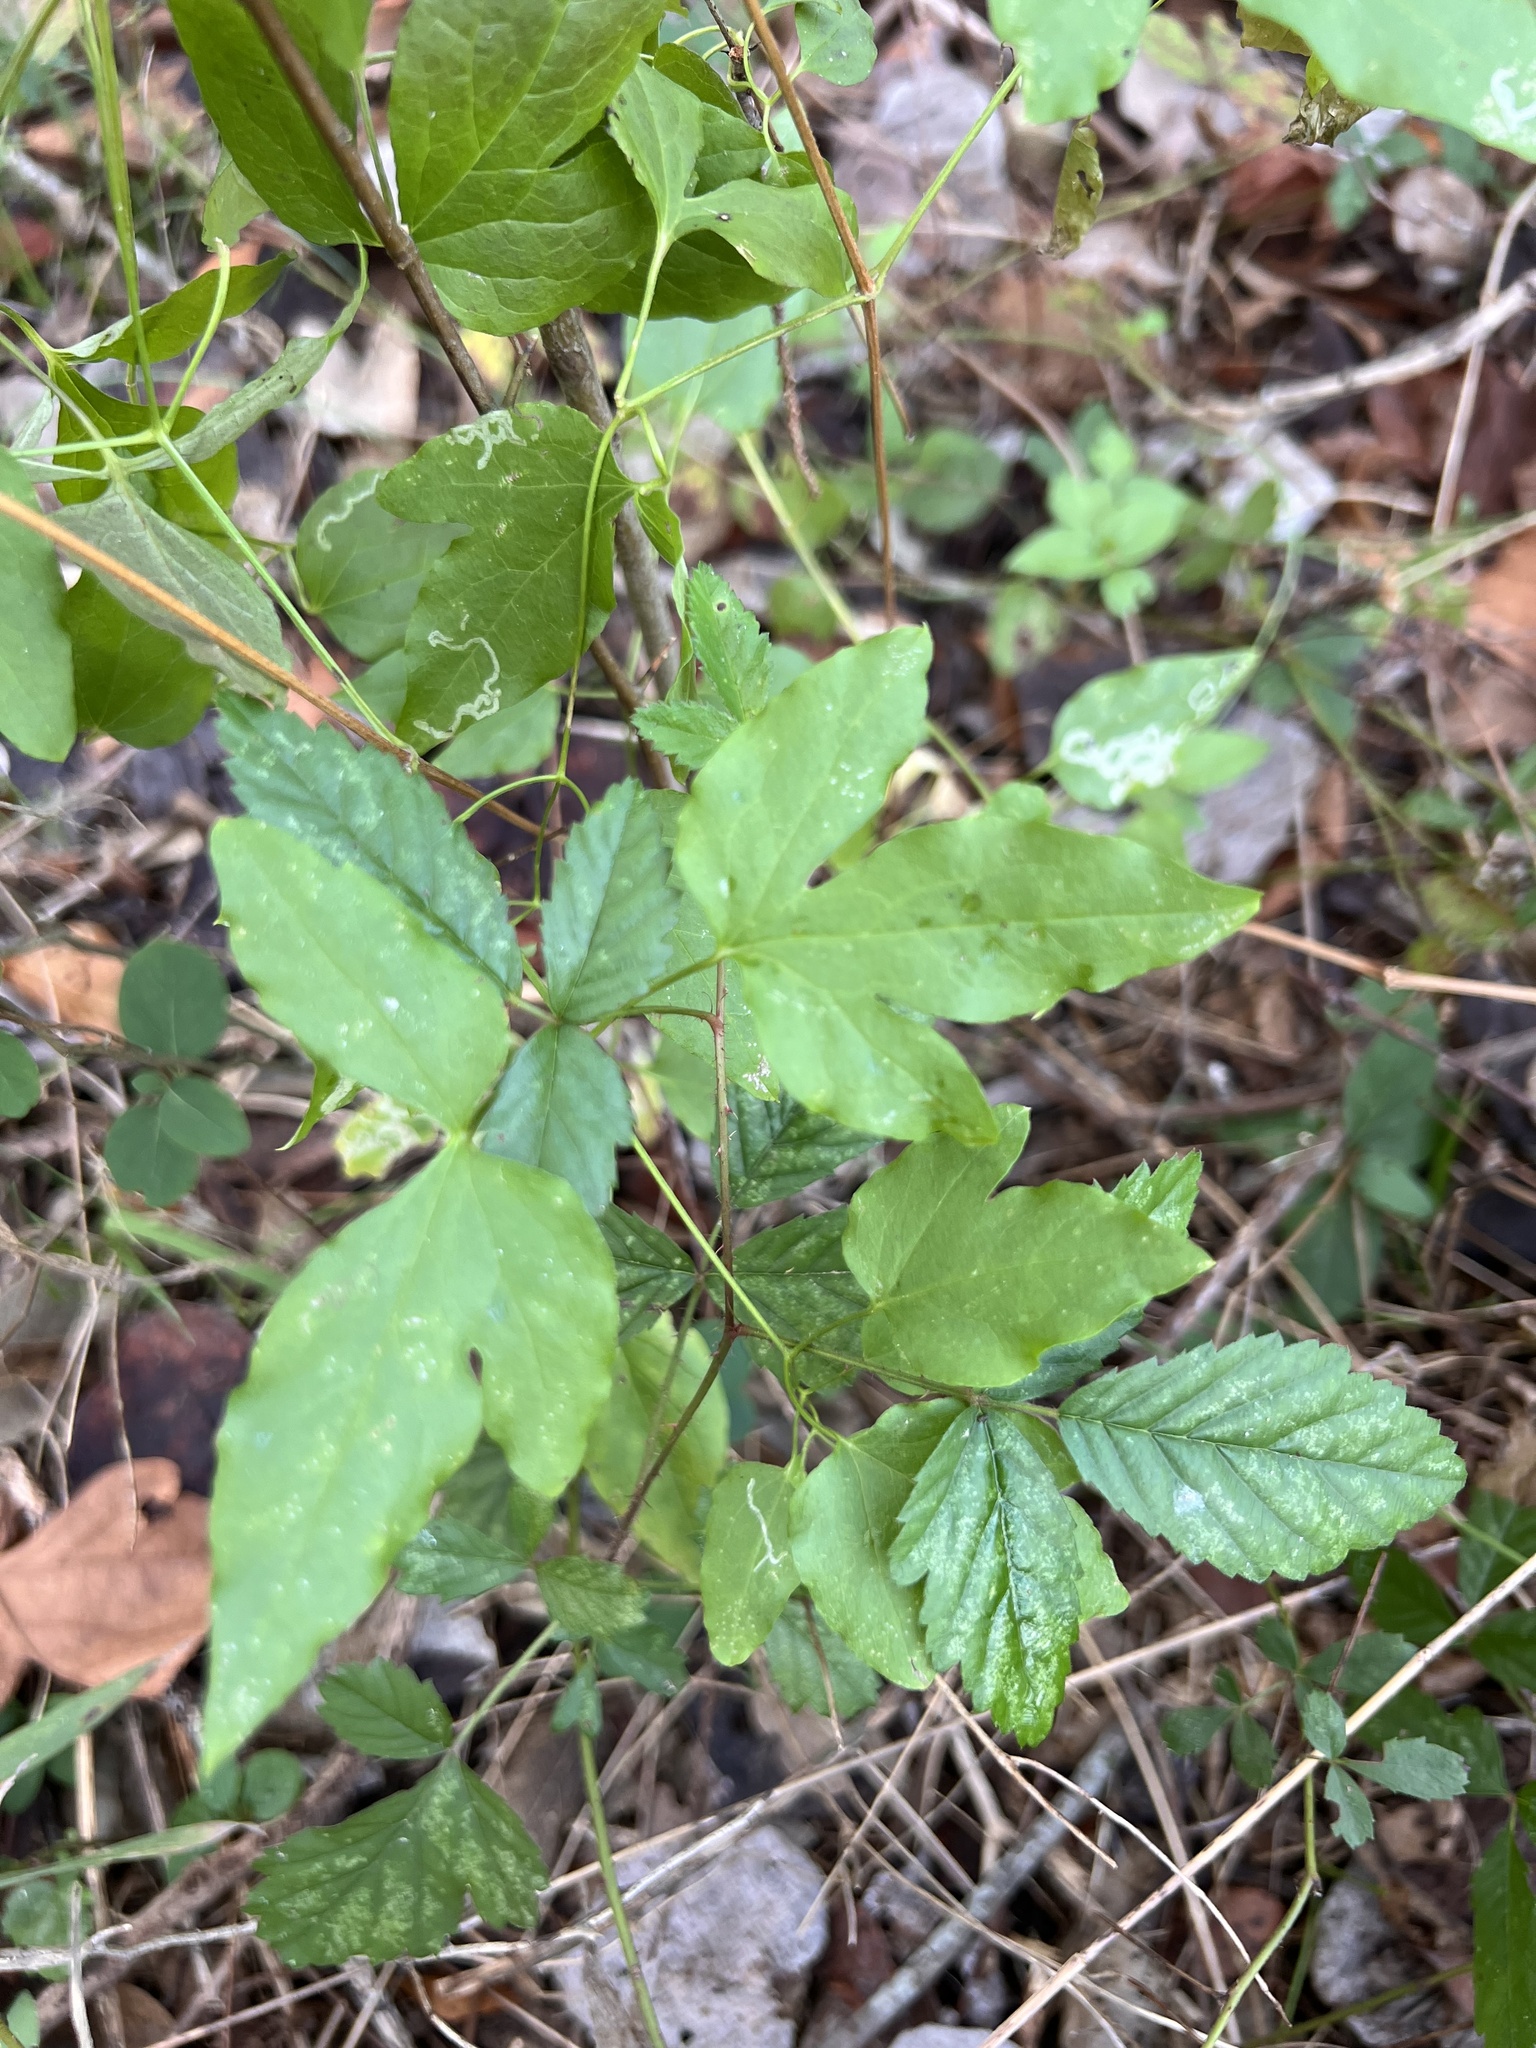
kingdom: Plantae
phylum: Tracheophyta
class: Magnoliopsida
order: Rosales
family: Rosaceae
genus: Rubus
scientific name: Rubus trivialis
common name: Southern dewberry
